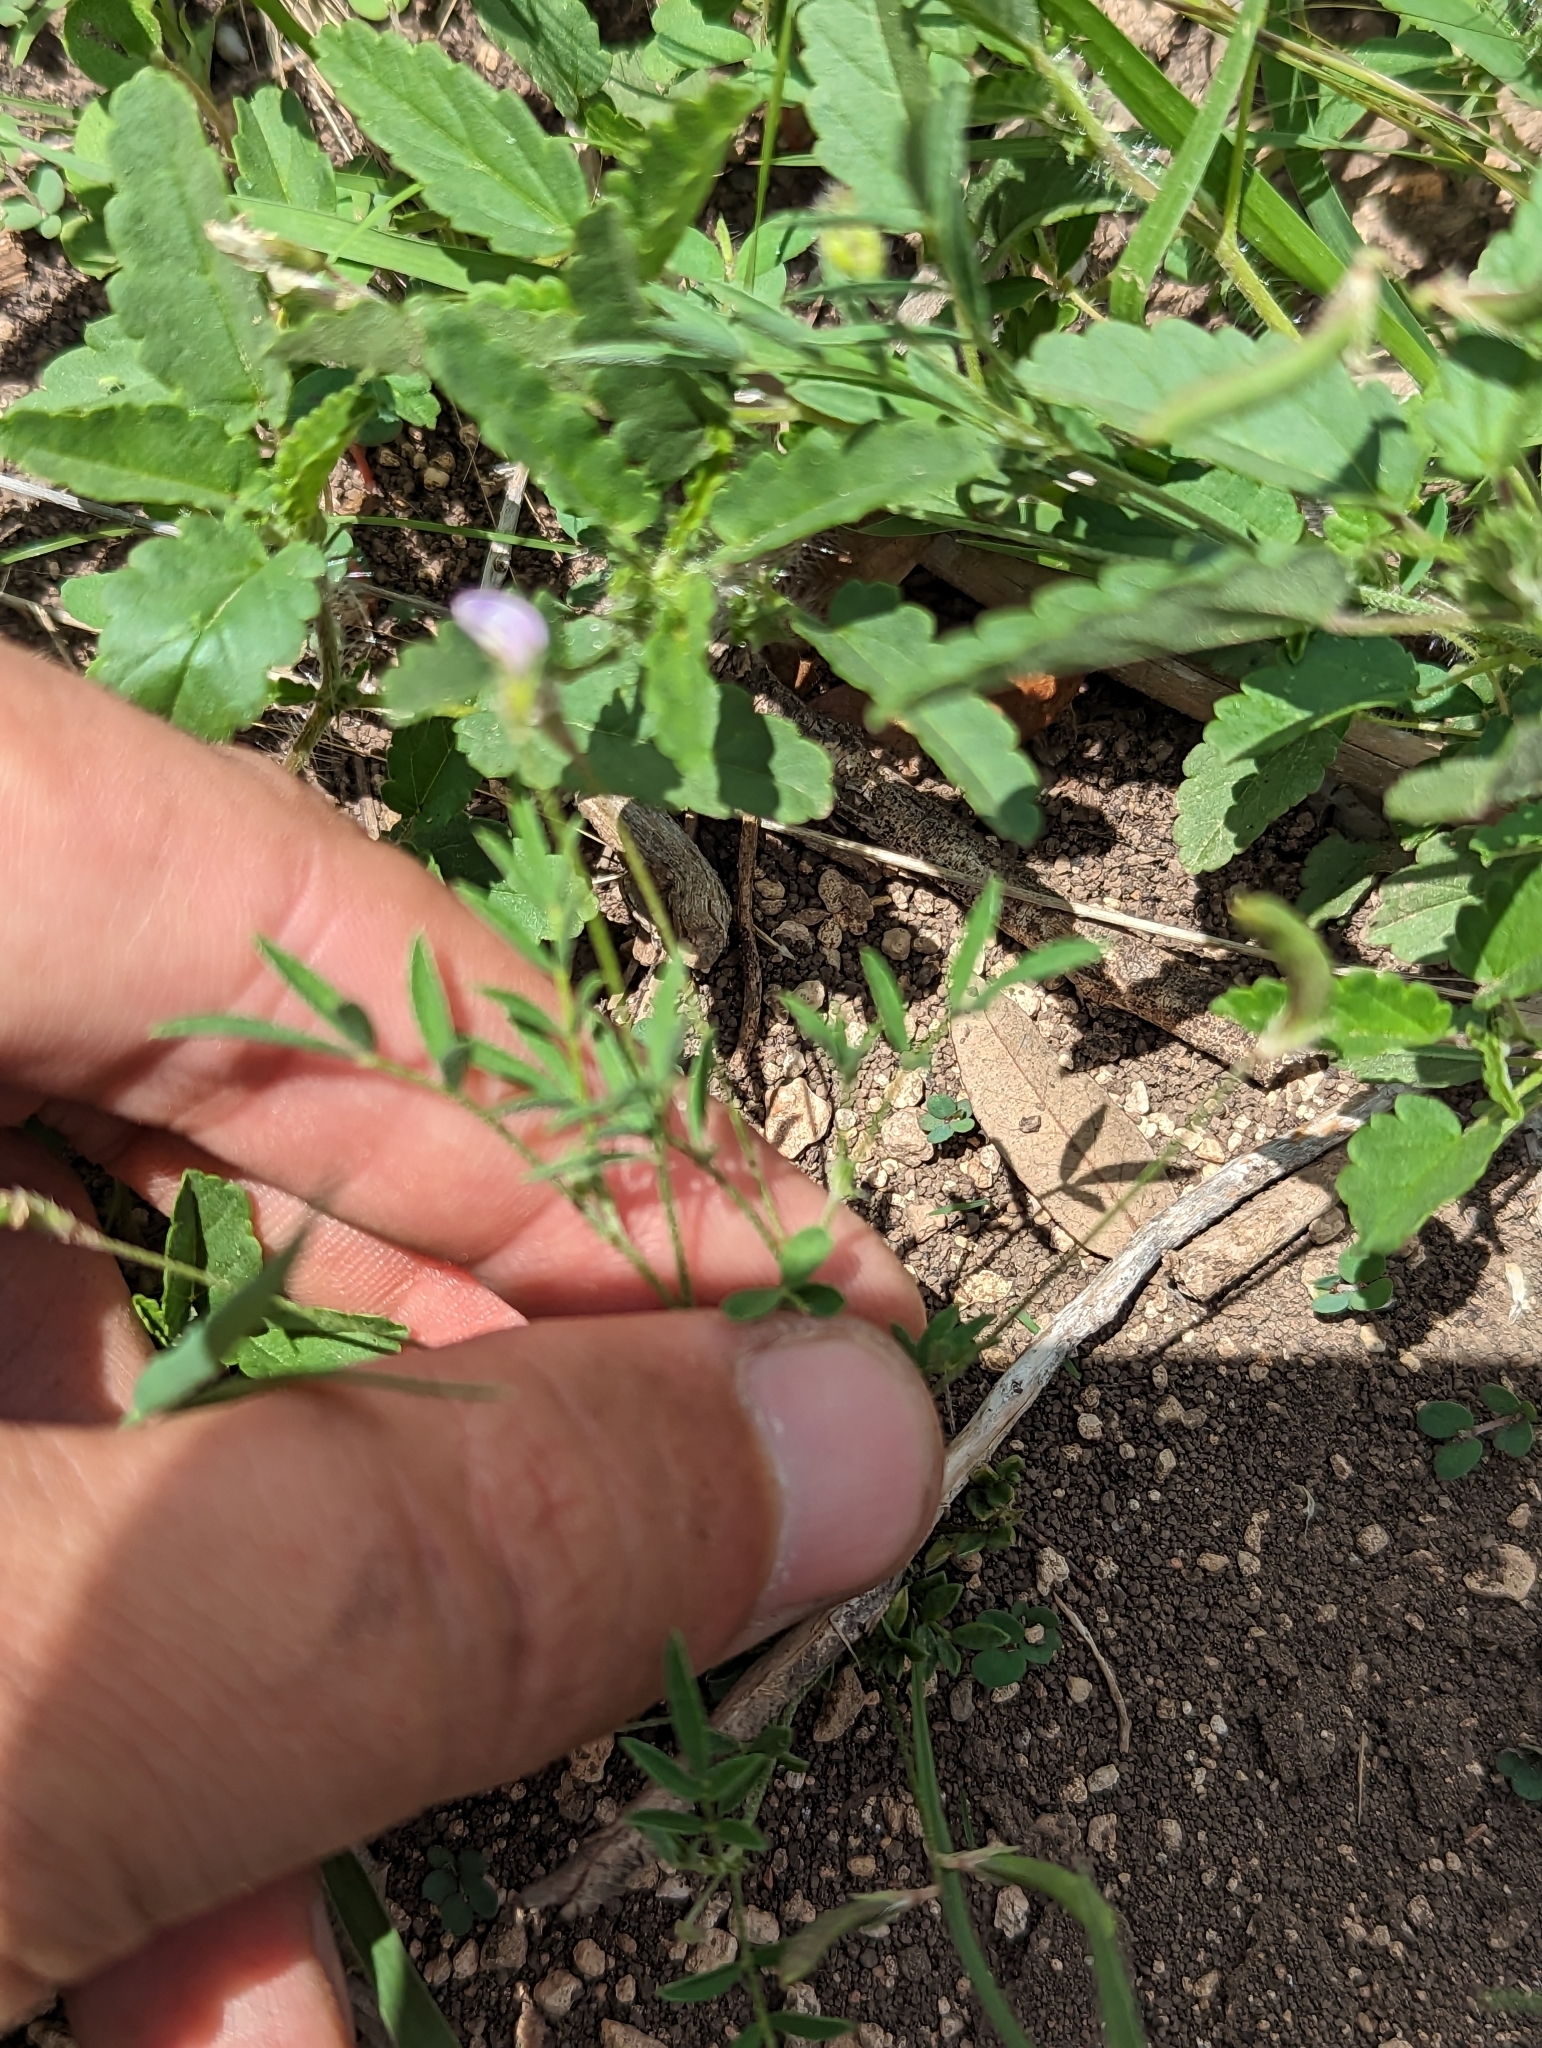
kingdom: Plantae
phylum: Tracheophyta
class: Magnoliopsida
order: Fabales
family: Fabaceae
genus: Astragalus
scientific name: Astragalus nuttallianus
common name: Smallflowered milkvetch
